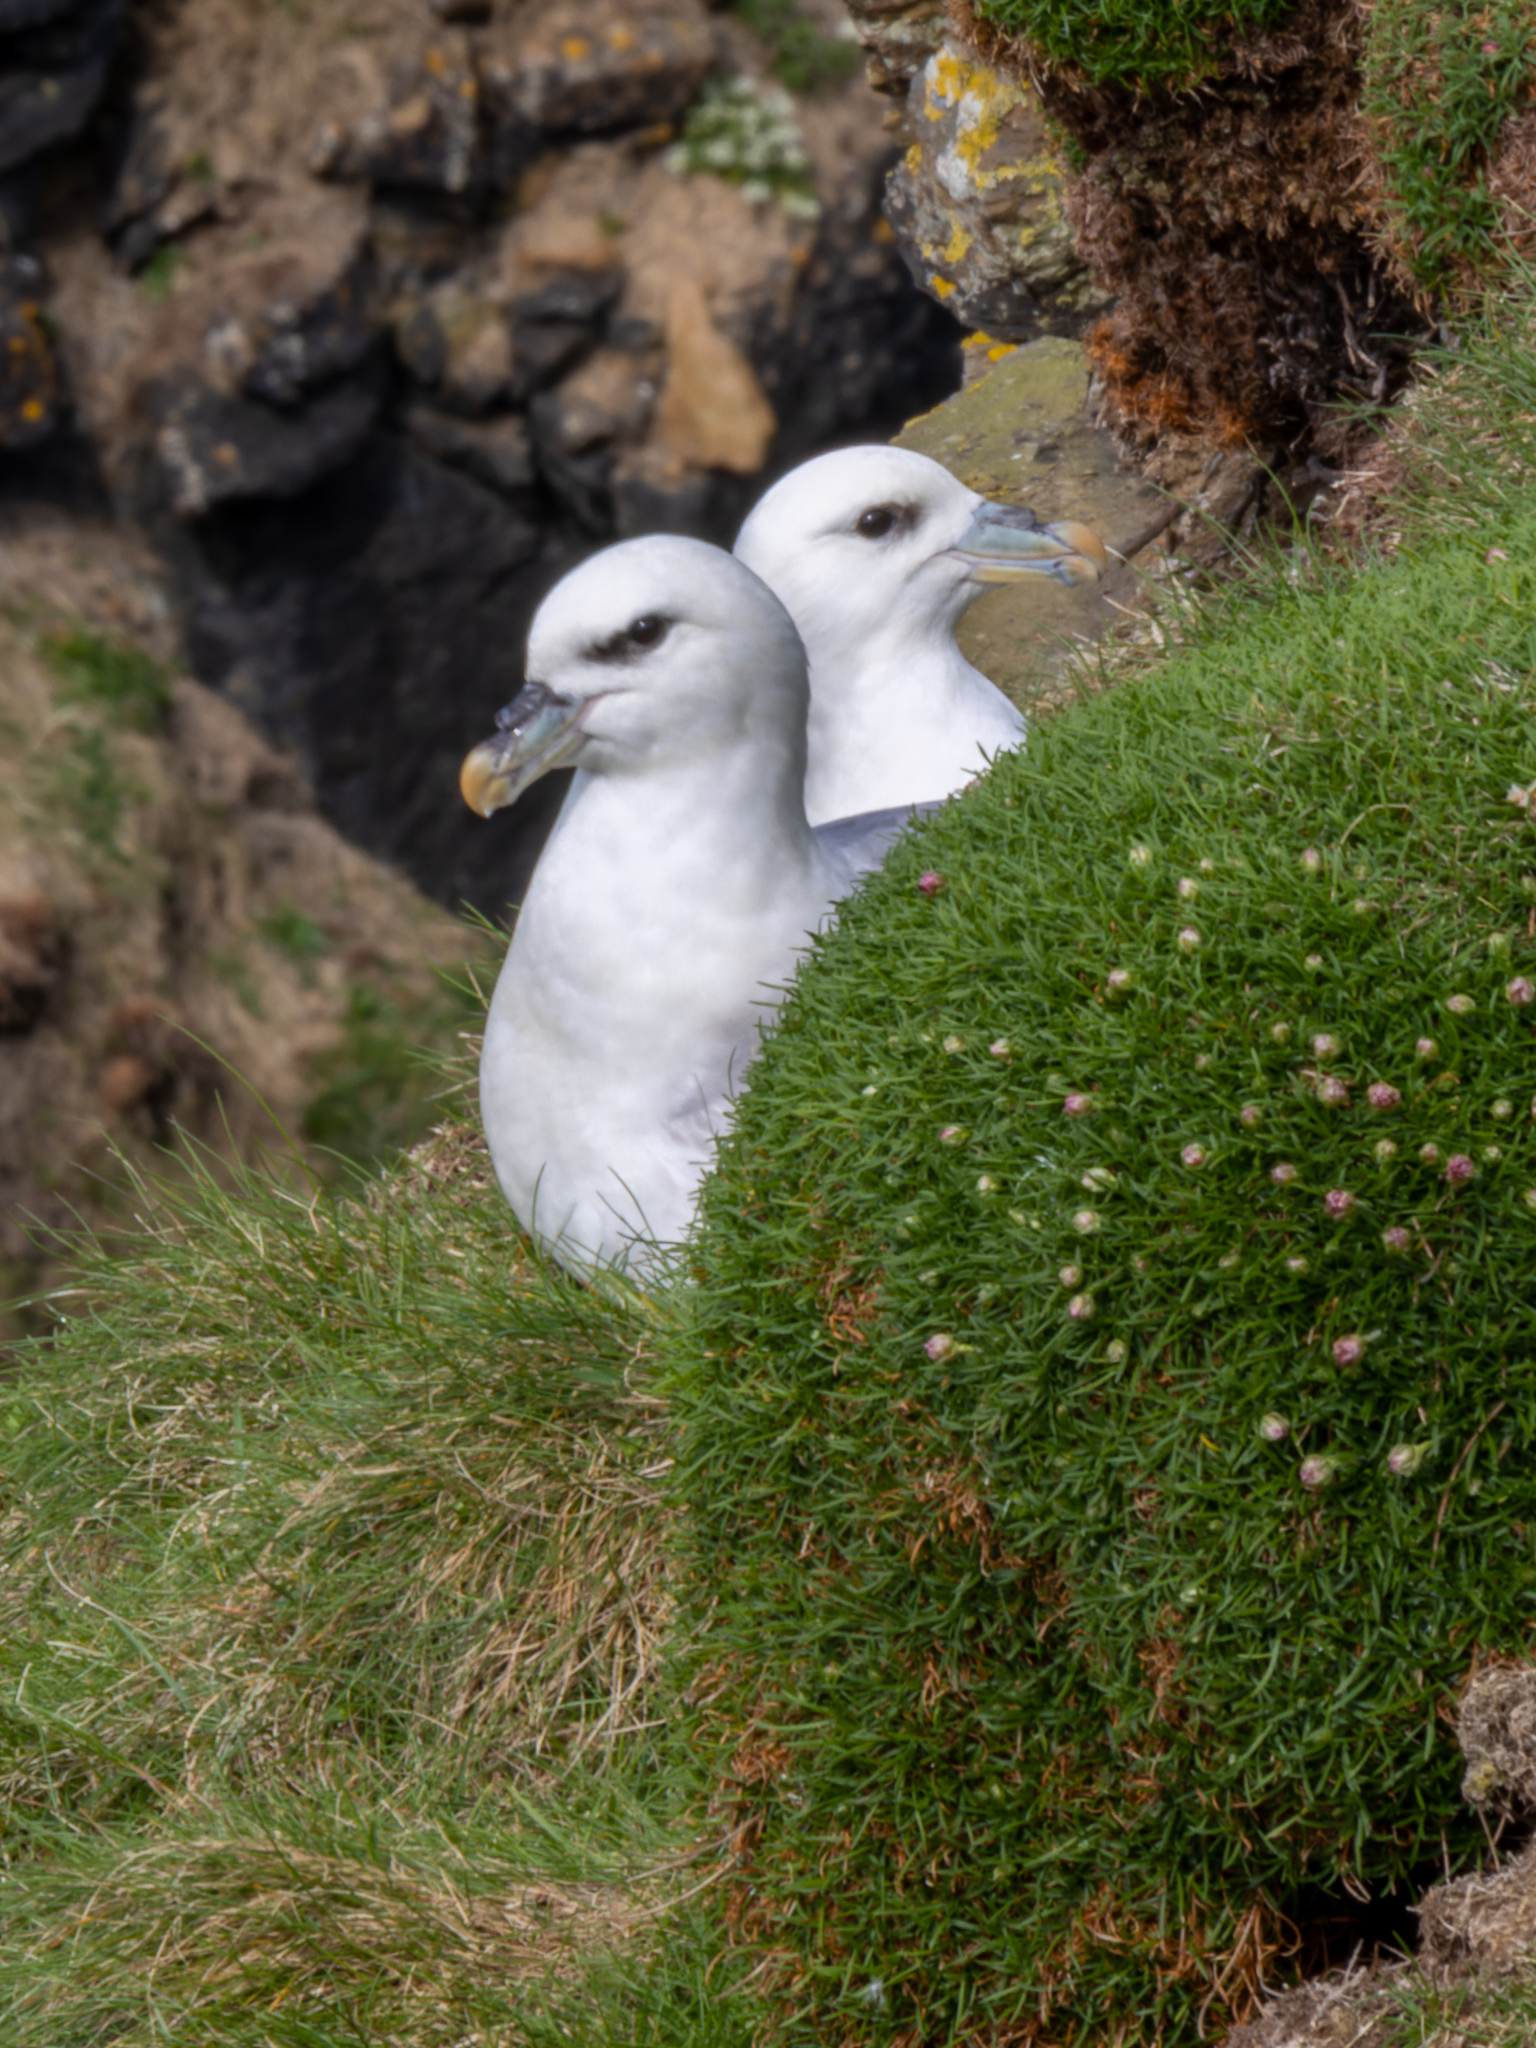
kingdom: Animalia
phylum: Chordata
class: Aves
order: Procellariiformes
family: Procellariidae
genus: Fulmarus
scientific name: Fulmarus glacialis
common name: Northern fulmar
